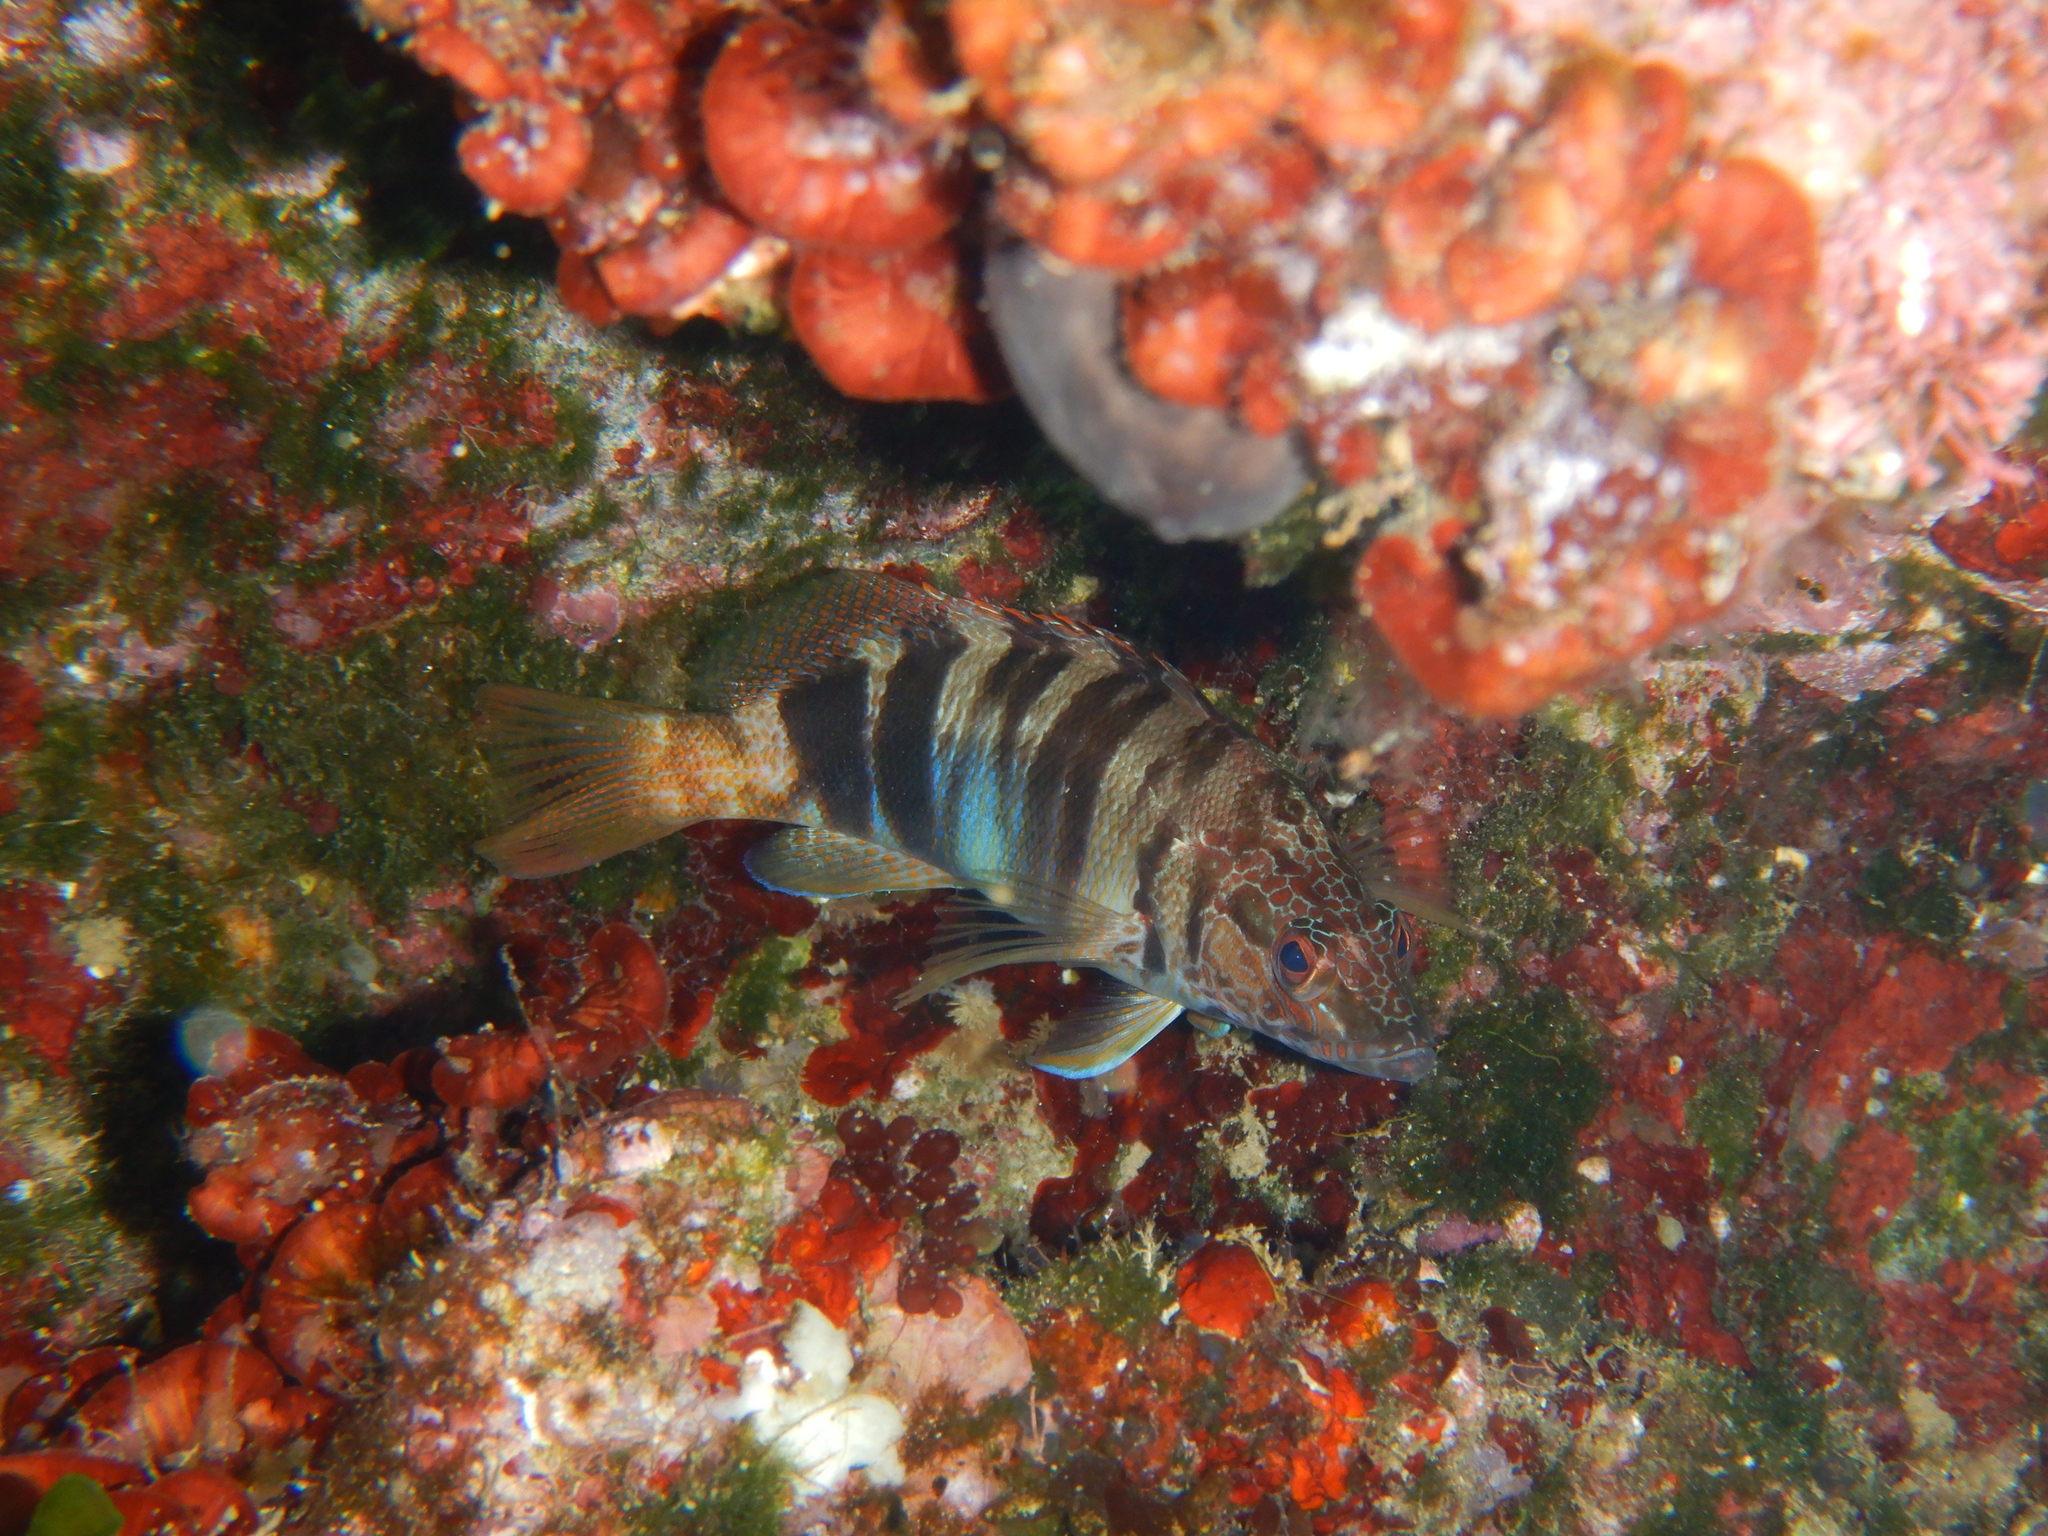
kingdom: Animalia
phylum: Chordata
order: Perciformes
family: Serranidae
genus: Serranus
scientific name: Serranus scriba
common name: Painted comber
